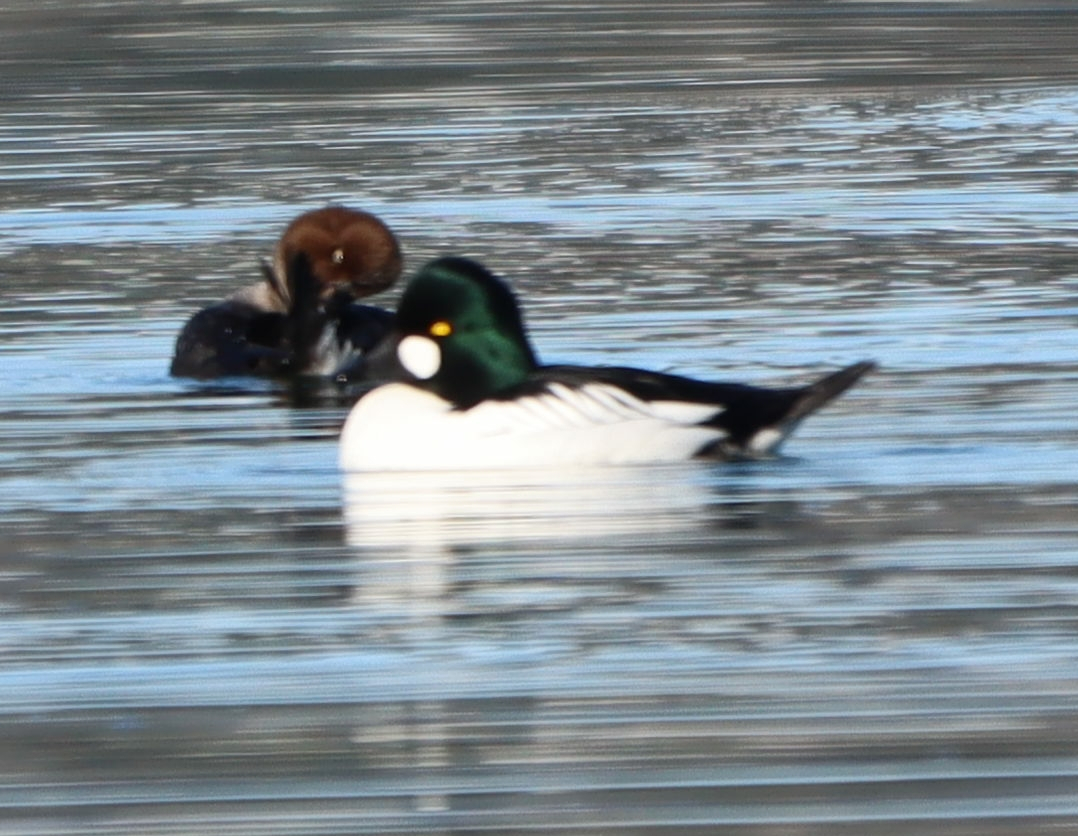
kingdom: Animalia
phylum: Chordata
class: Aves
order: Anseriformes
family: Anatidae
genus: Bucephala
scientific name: Bucephala clangula
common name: Common goldeneye
